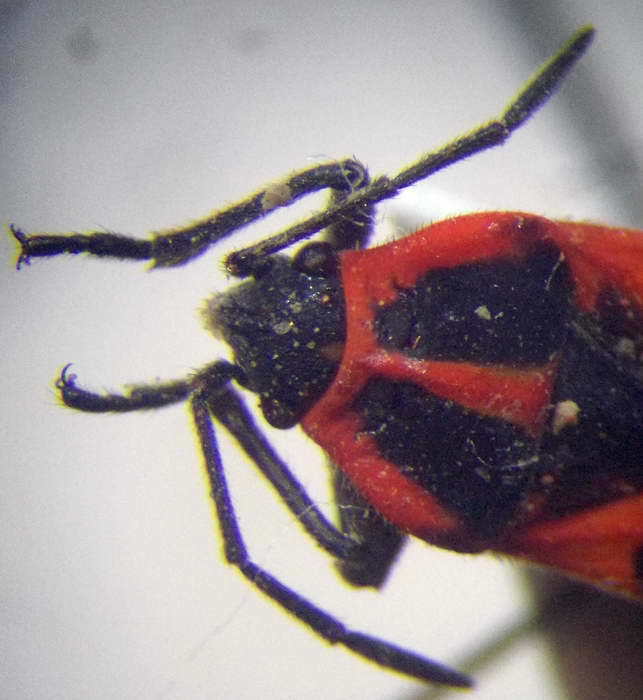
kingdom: Animalia
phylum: Arthropoda
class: Insecta
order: Hemiptera
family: Lygaeidae
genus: Tropidothorax
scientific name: Tropidothorax leucopterus
